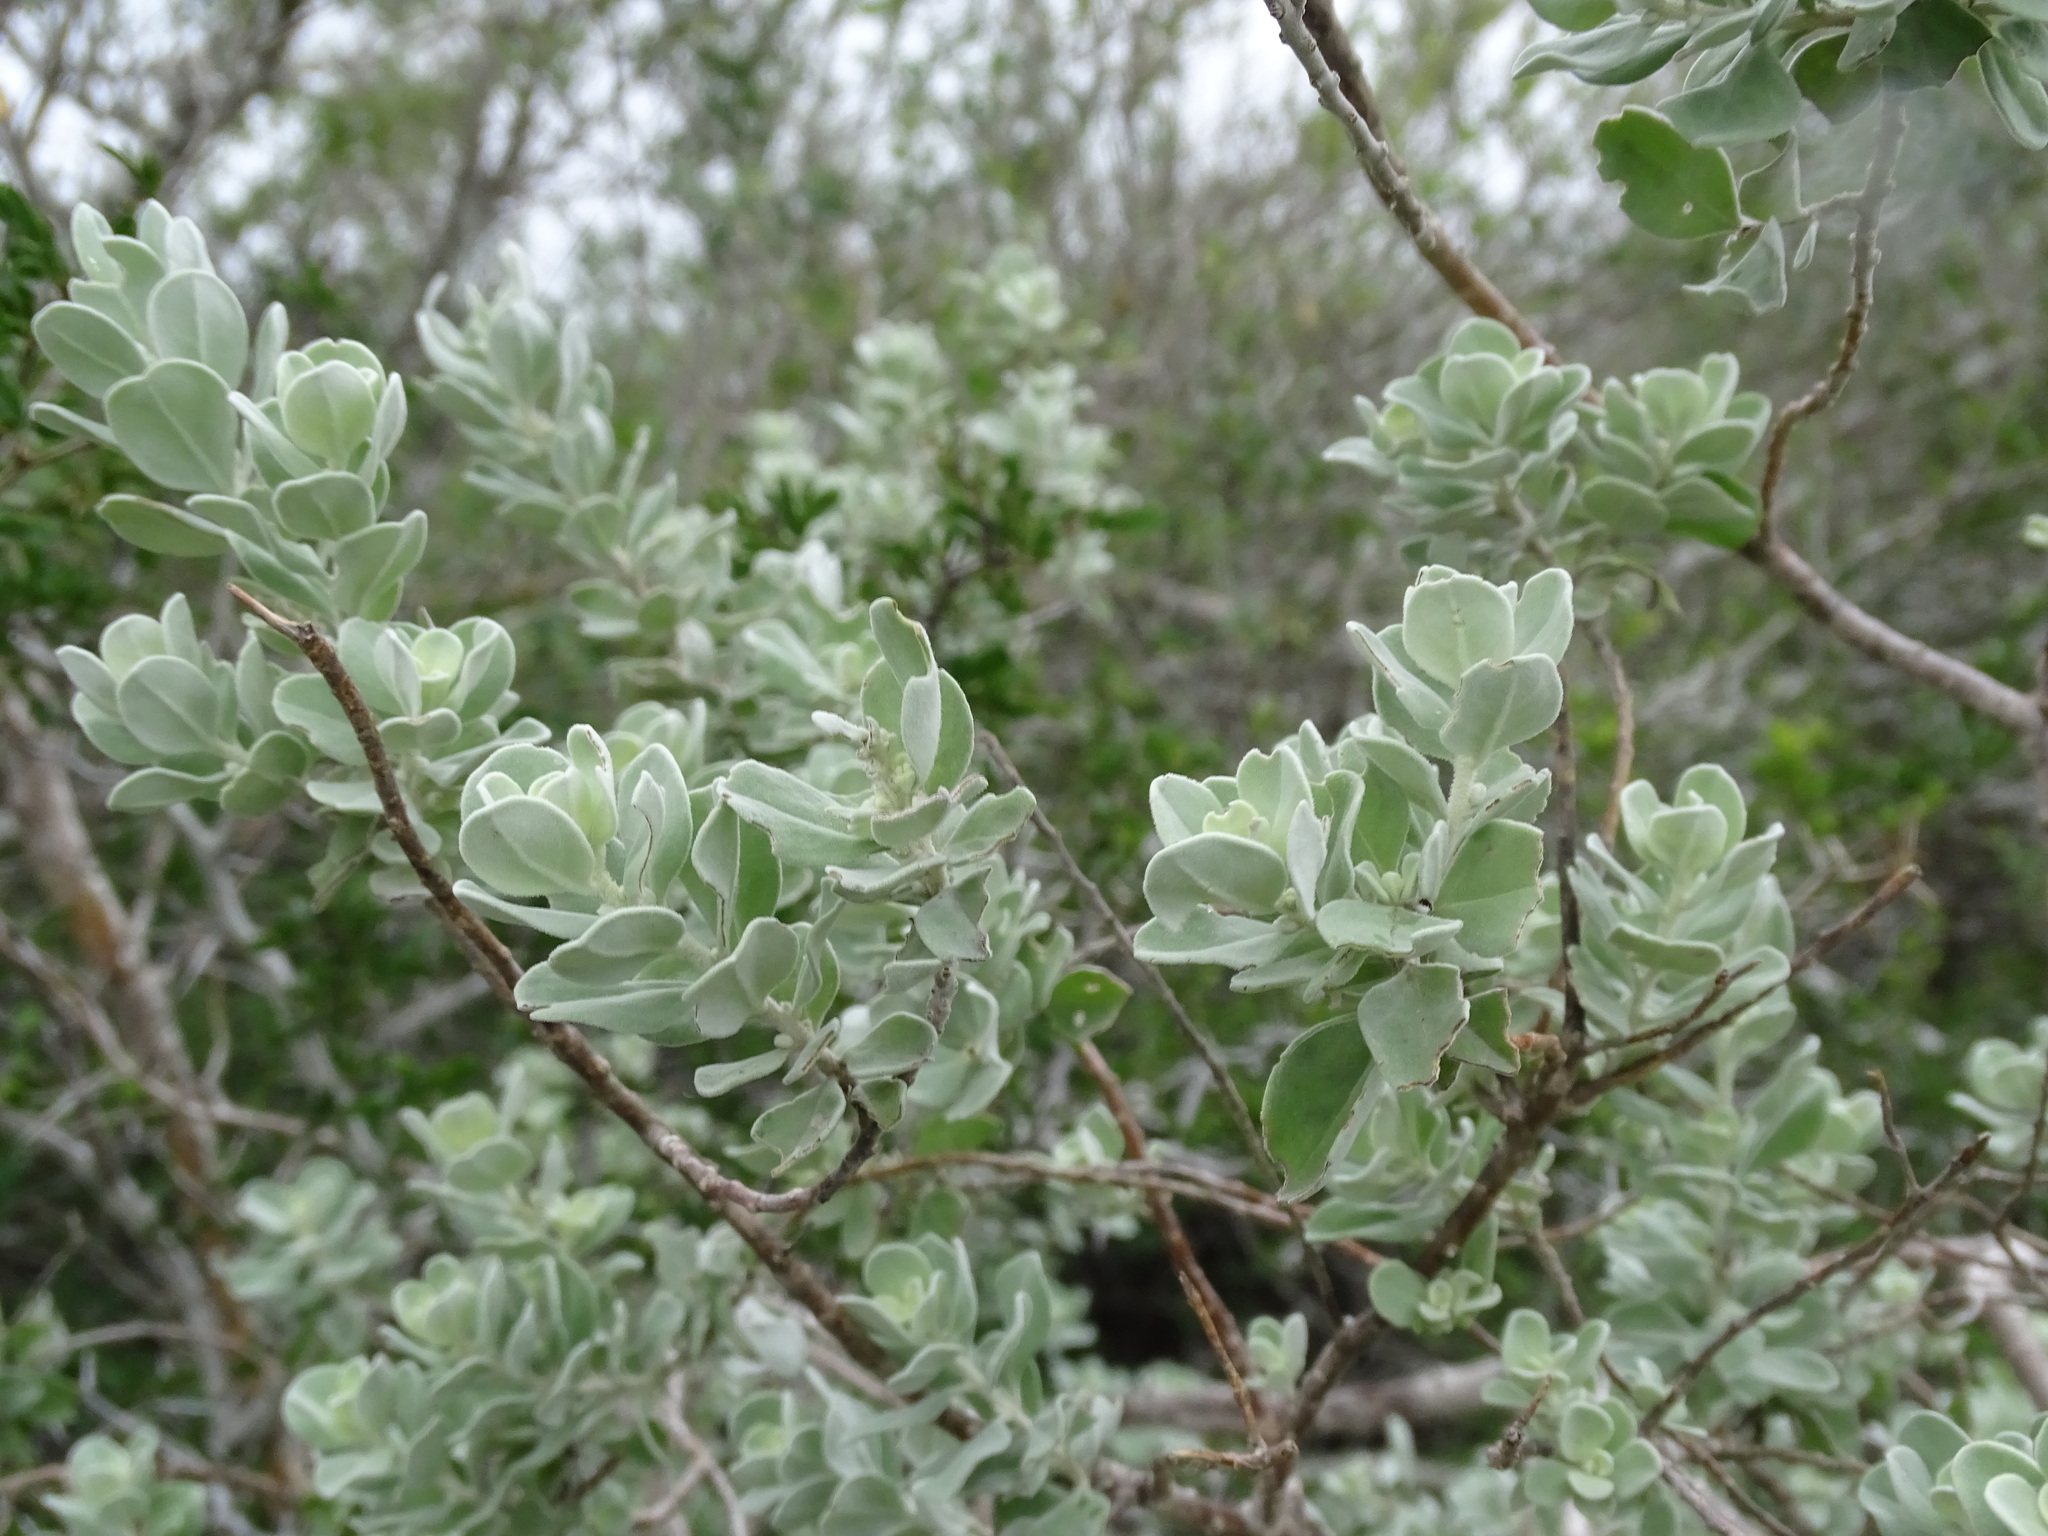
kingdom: Plantae
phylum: Tracheophyta
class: Magnoliopsida
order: Lamiales
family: Scrophulariaceae
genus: Leucophyllum
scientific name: Leucophyllum frutescens
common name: Texas silverleaf
